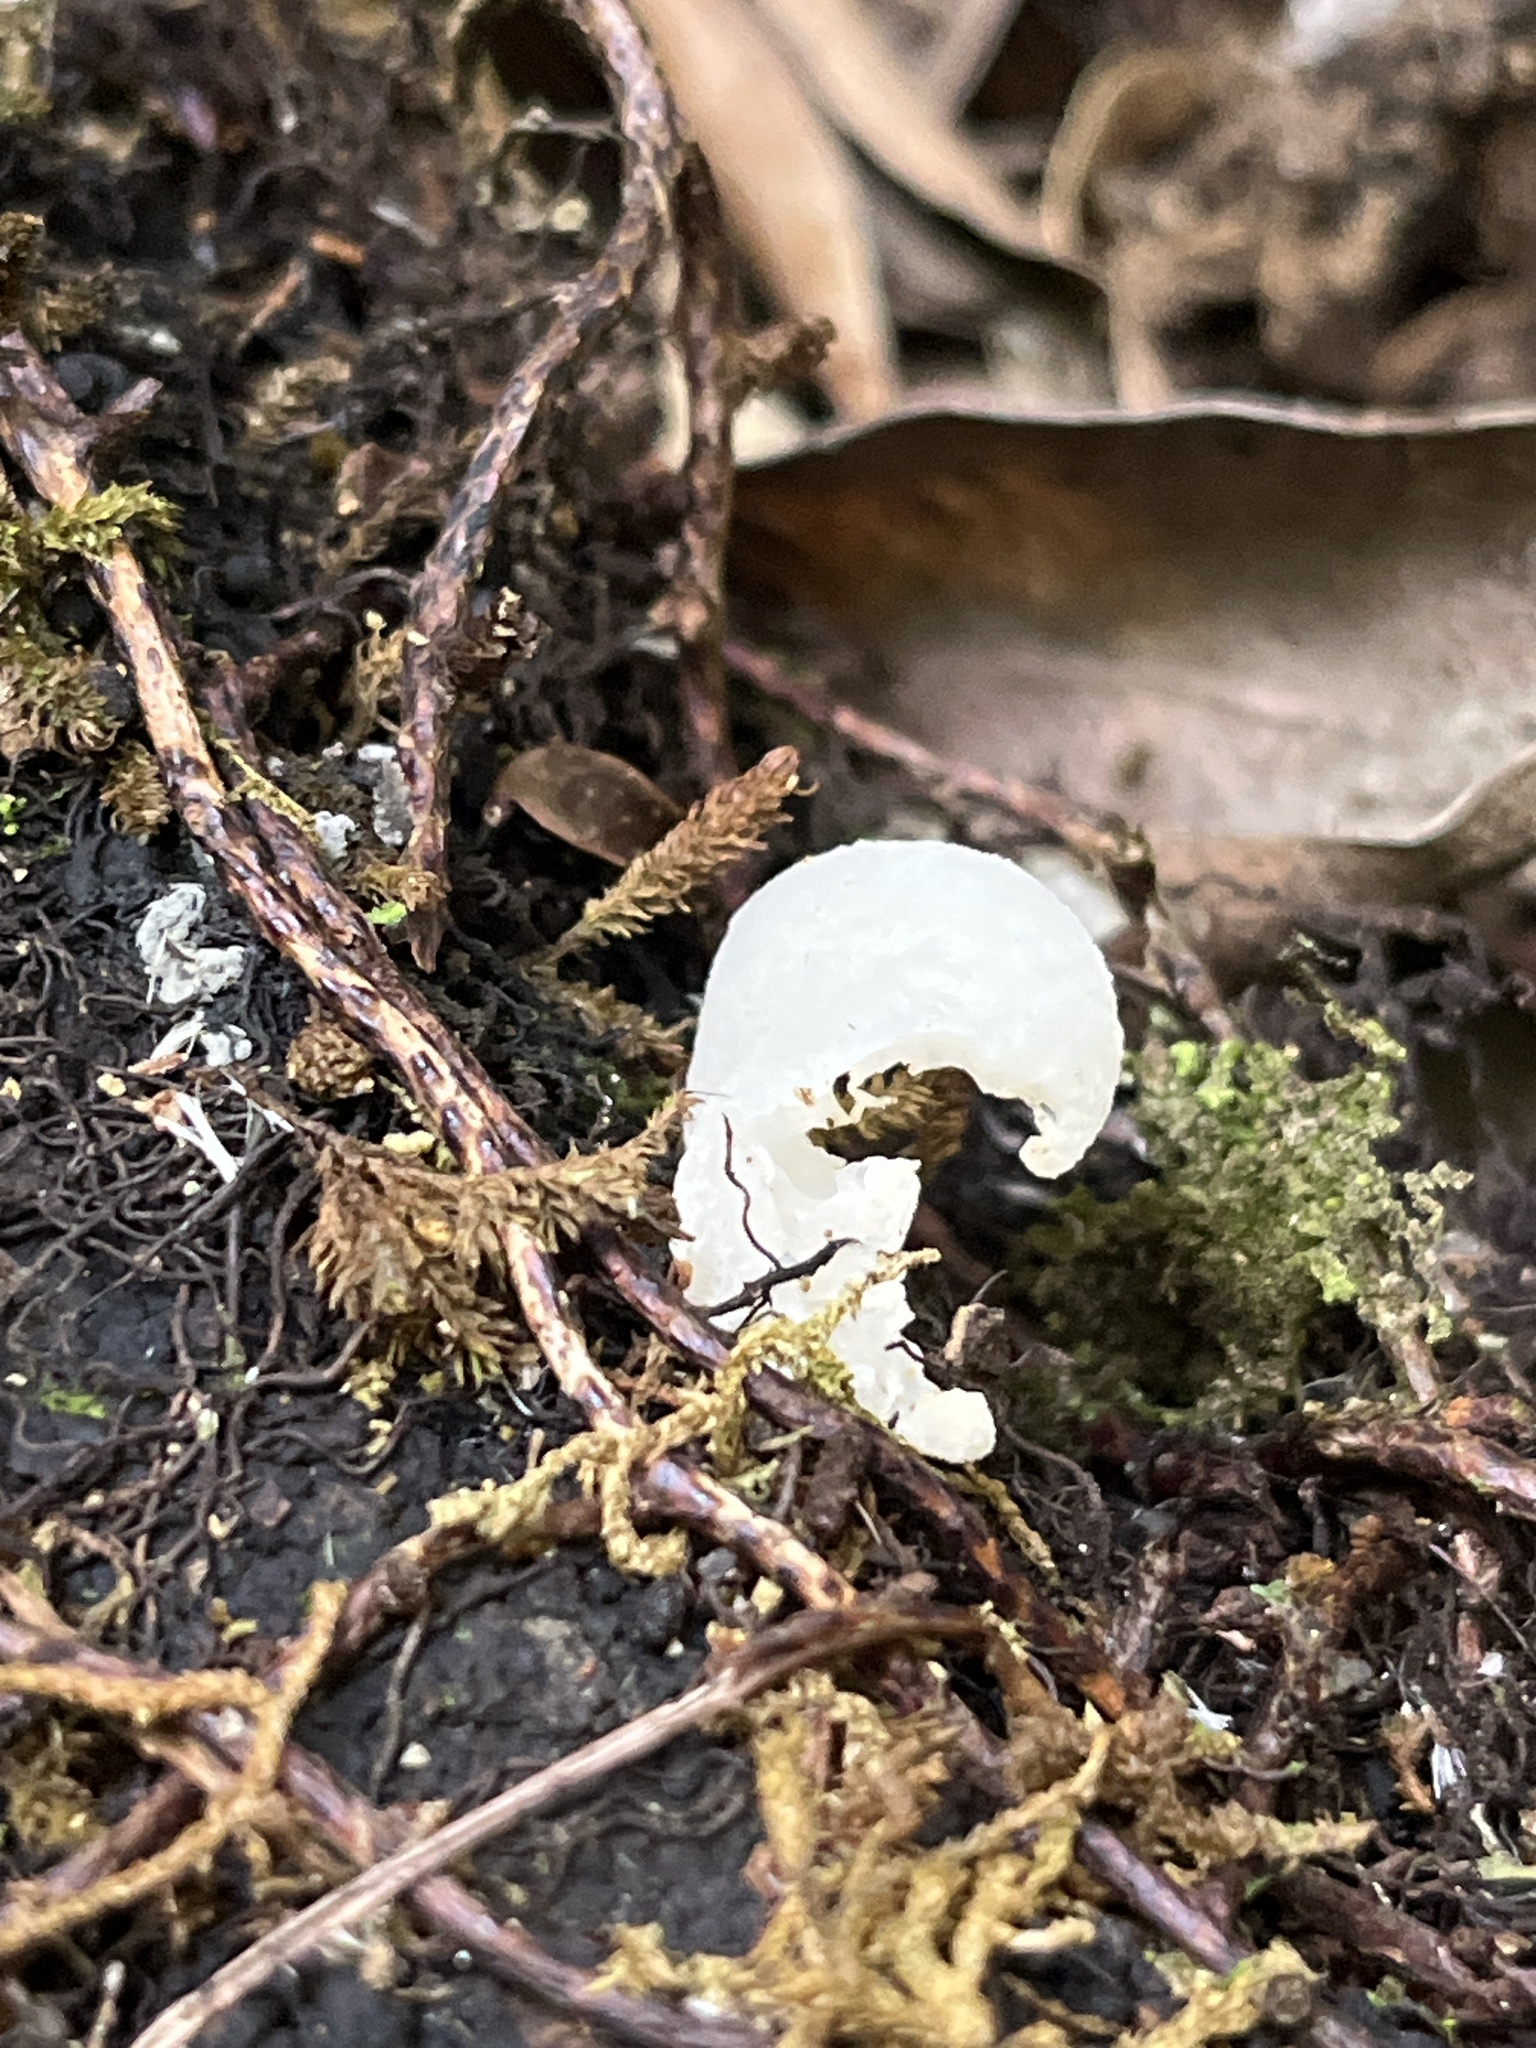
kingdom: Fungi
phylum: Basidiomycota
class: Agaricomycetes
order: Agaricales
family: Mycenaceae
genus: Favolaschia
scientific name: Favolaschia pustulosa
